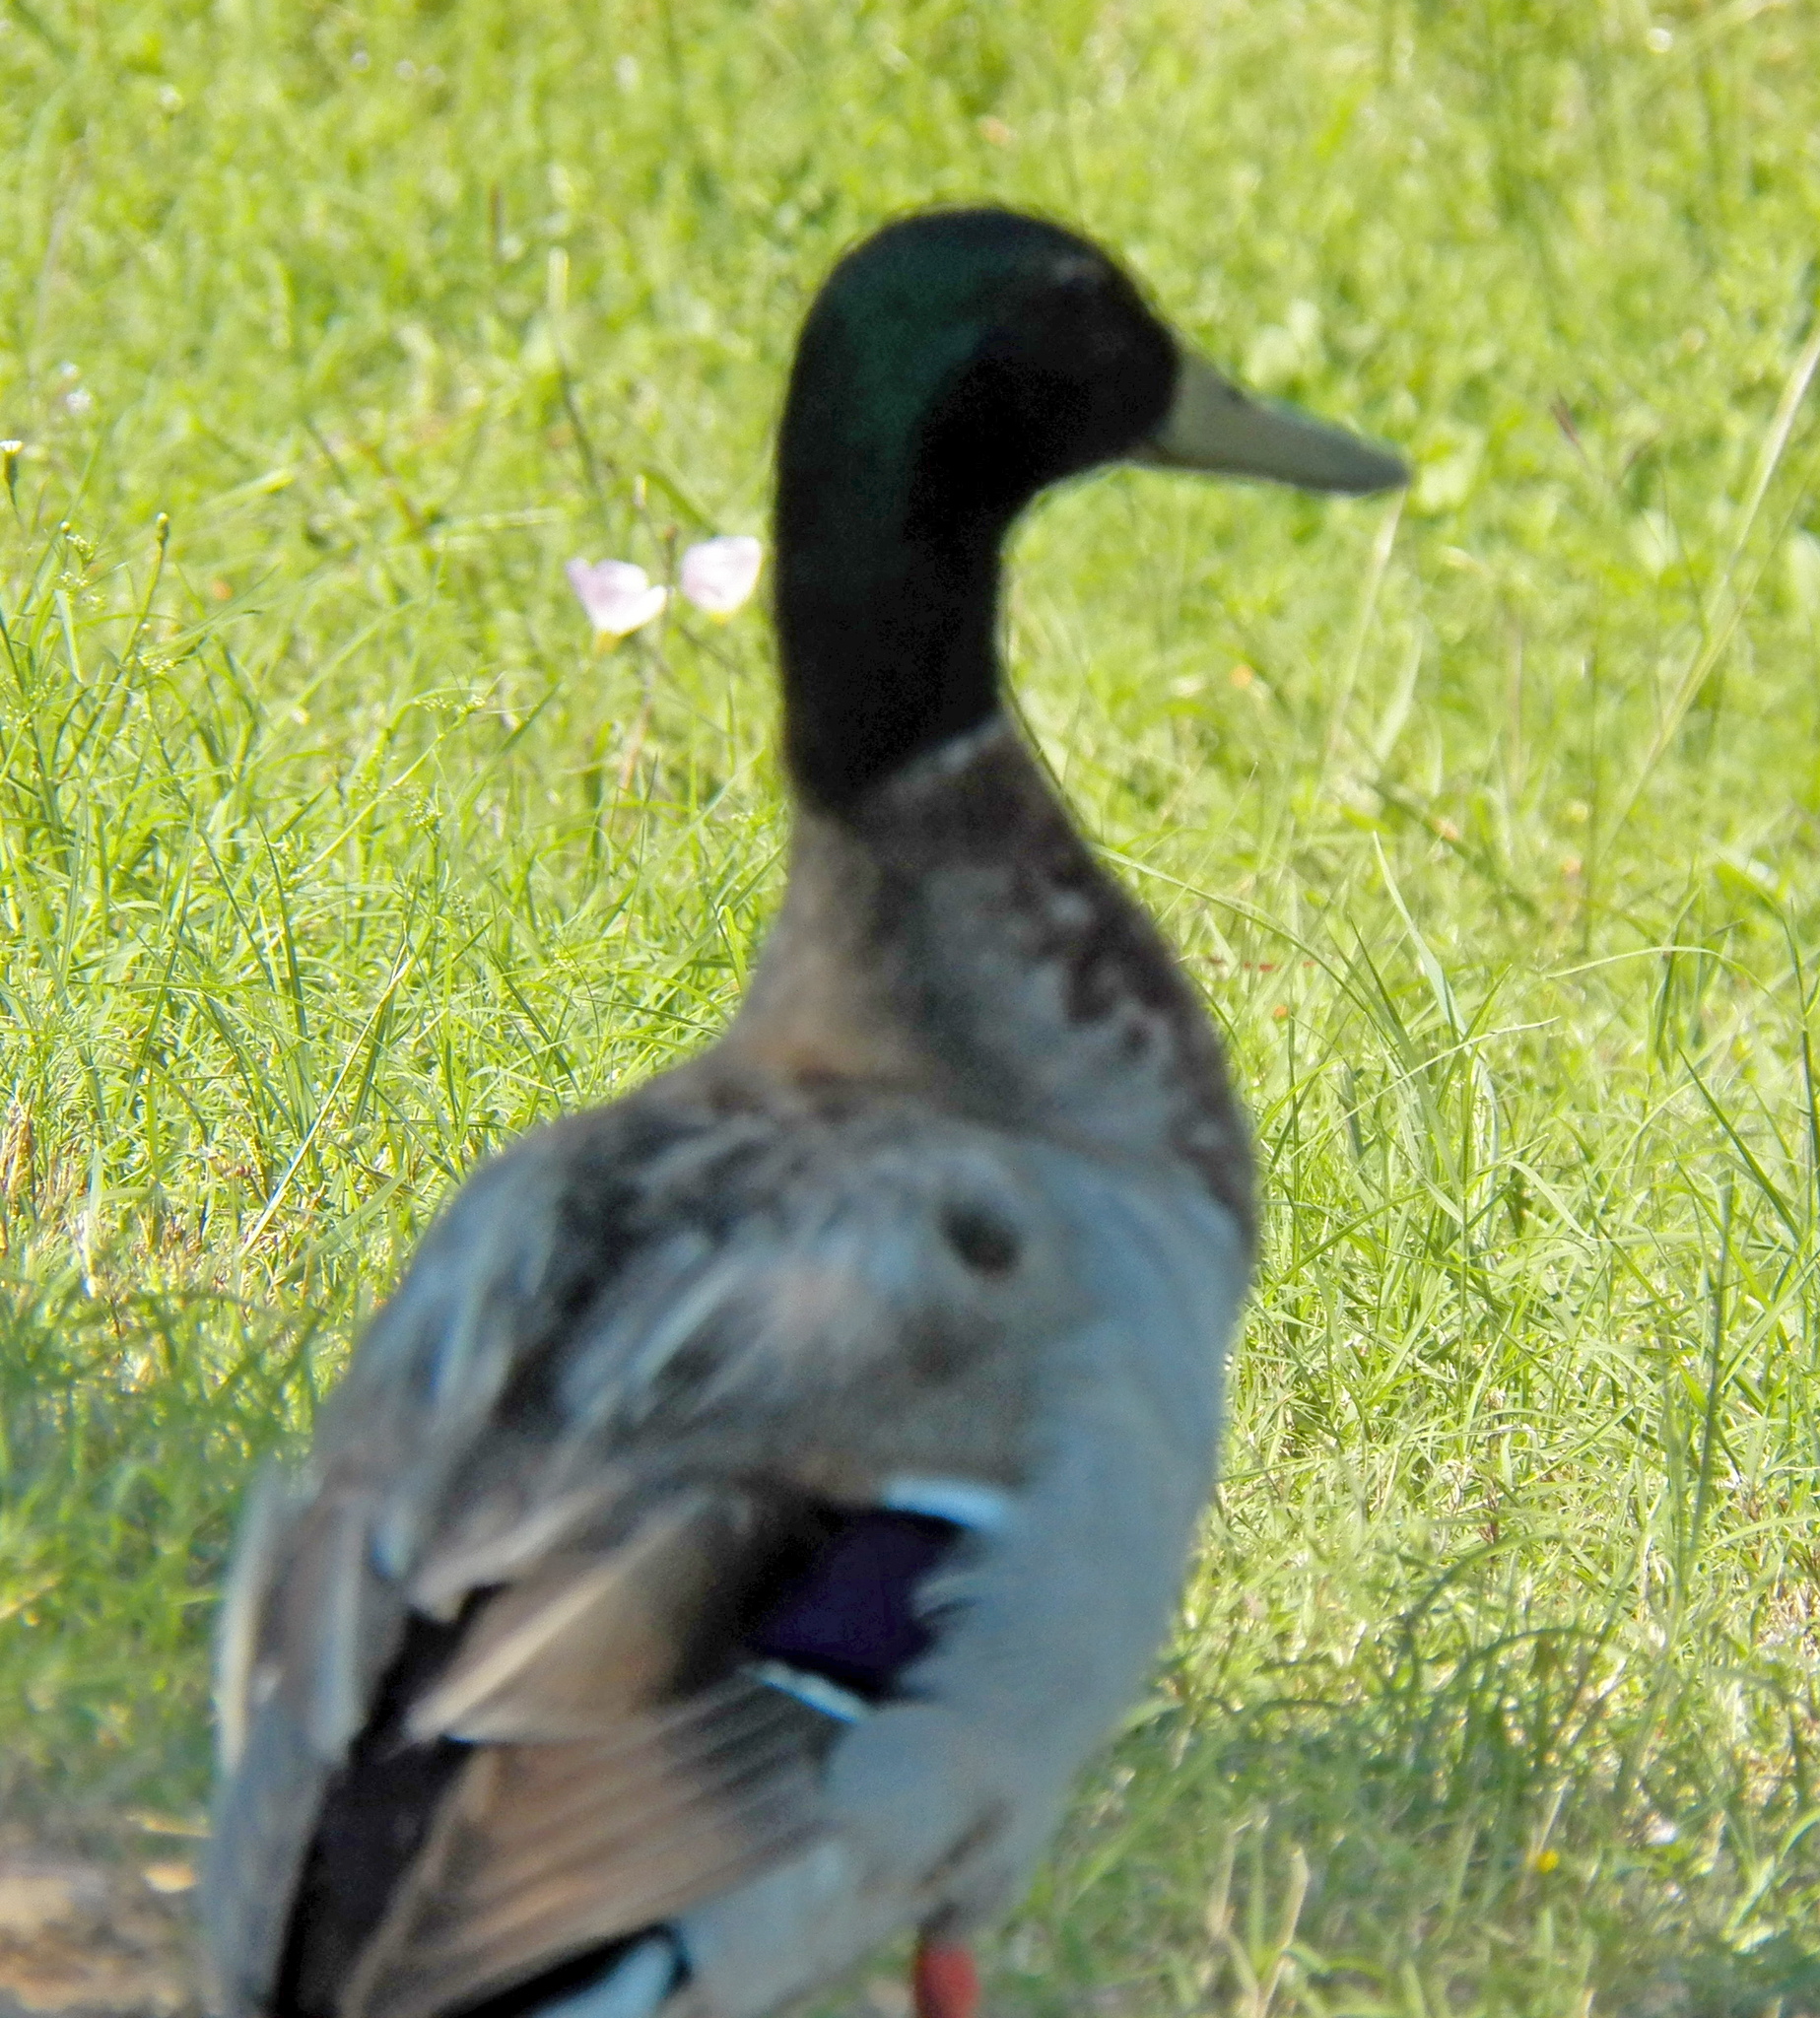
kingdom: Animalia
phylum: Chordata
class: Aves
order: Anseriformes
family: Anatidae
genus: Anas
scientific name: Anas platyrhynchos
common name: Mallard
